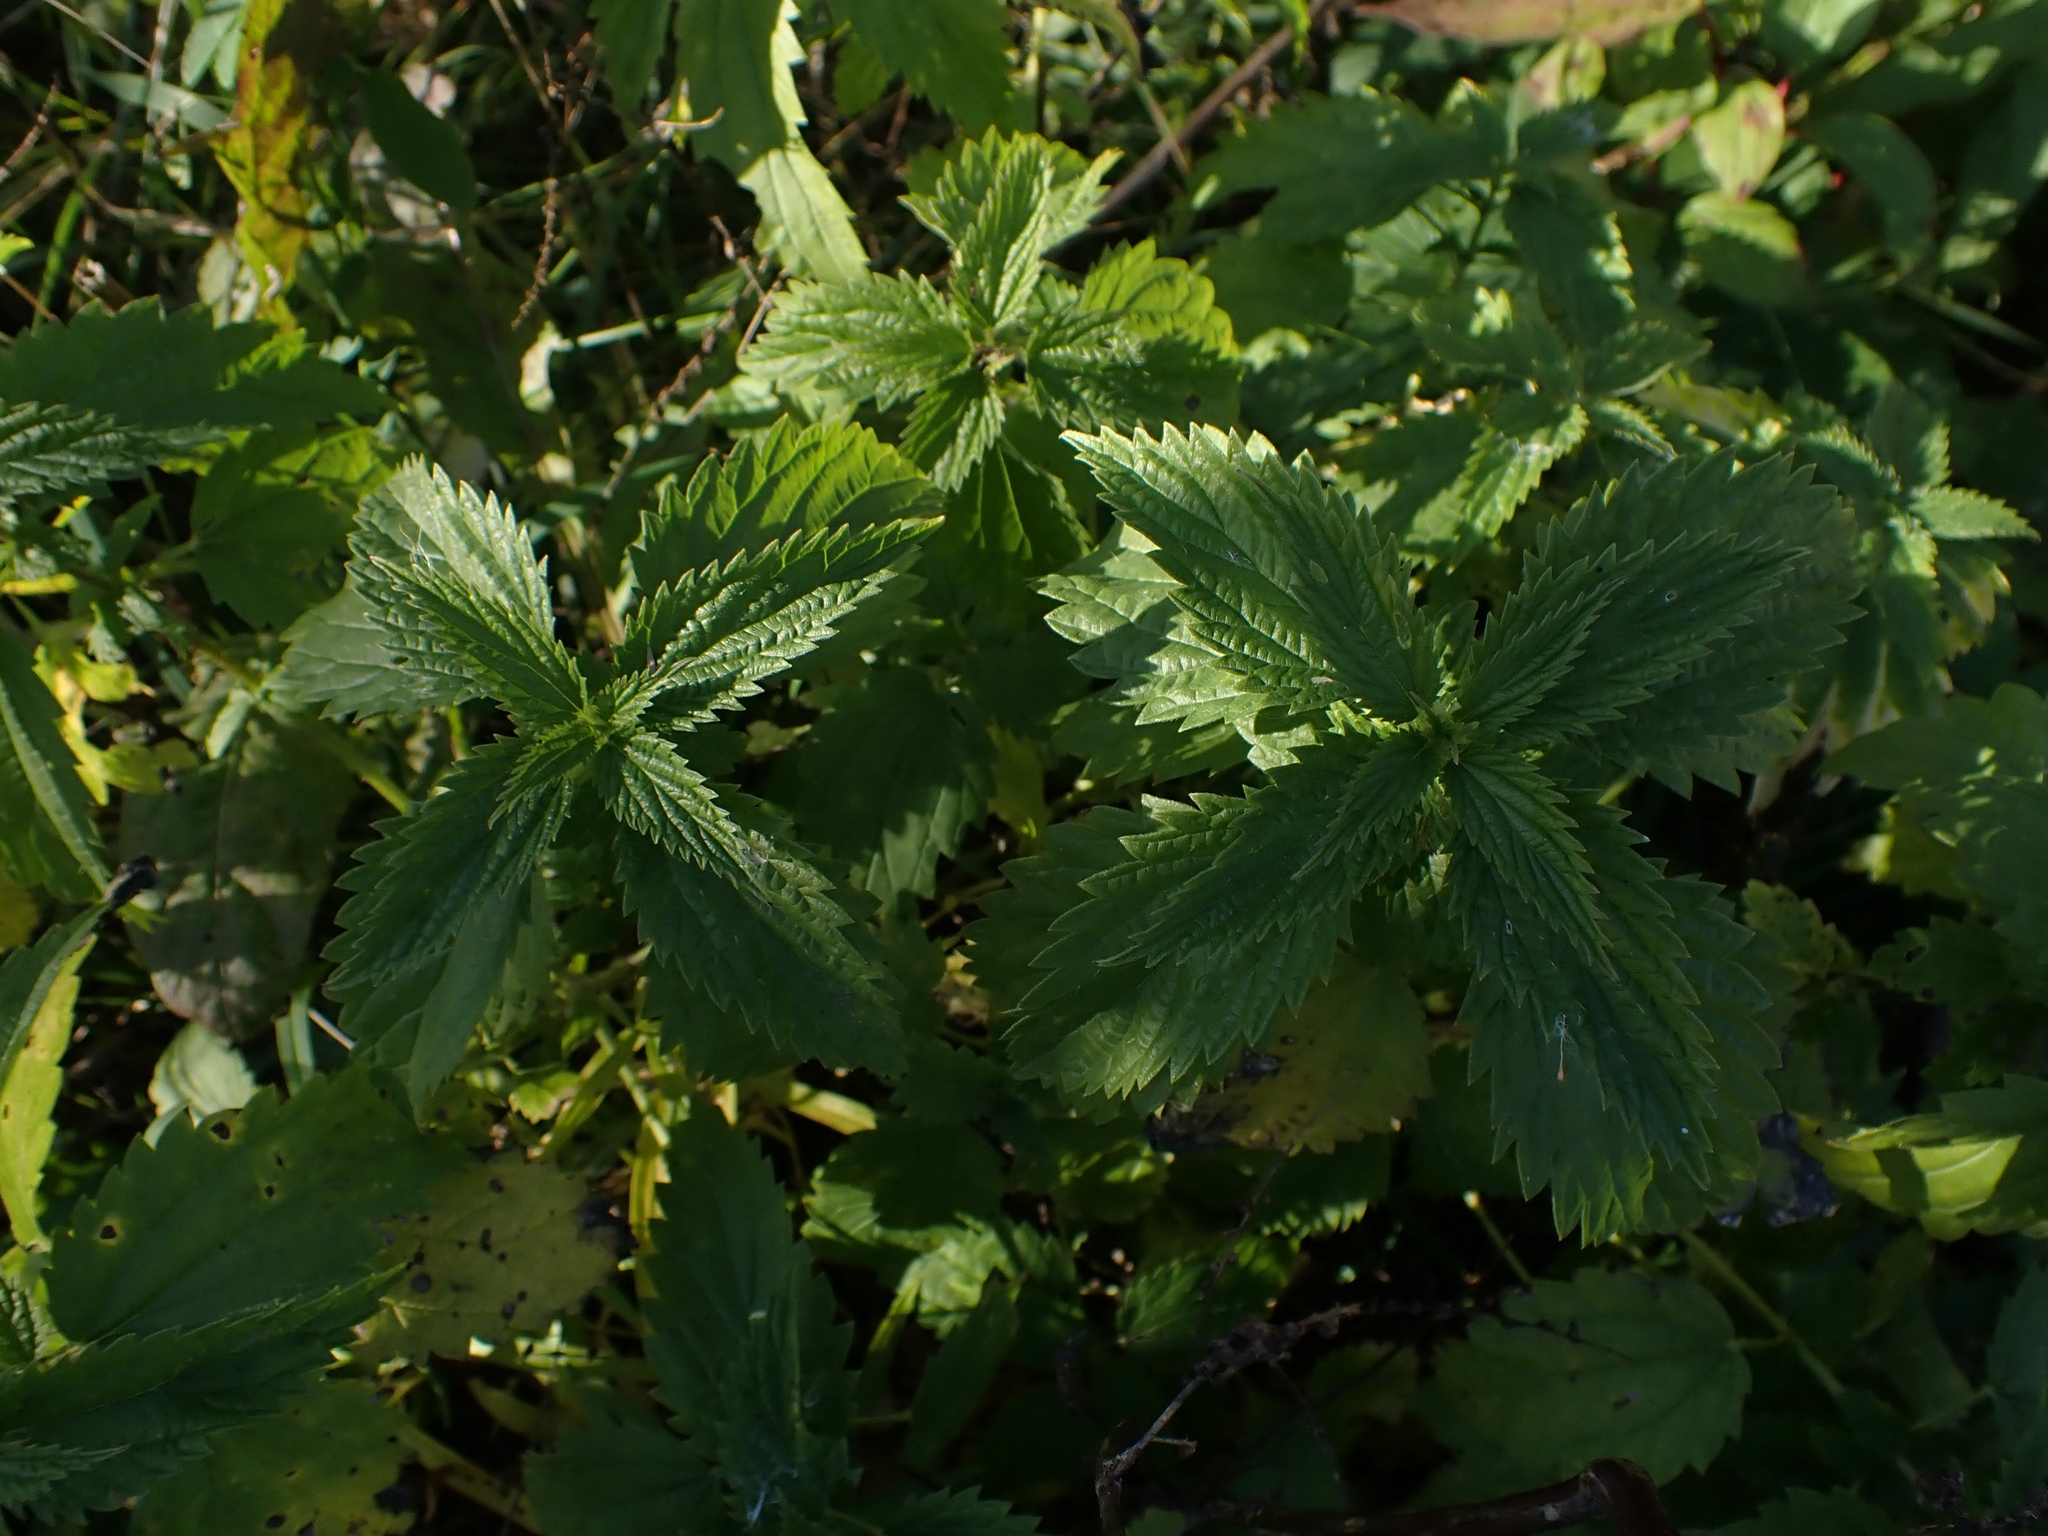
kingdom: Plantae
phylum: Tracheophyta
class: Magnoliopsida
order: Rosales
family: Urticaceae
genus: Urtica
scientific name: Urtica gracilis
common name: Slender stinging nettle
